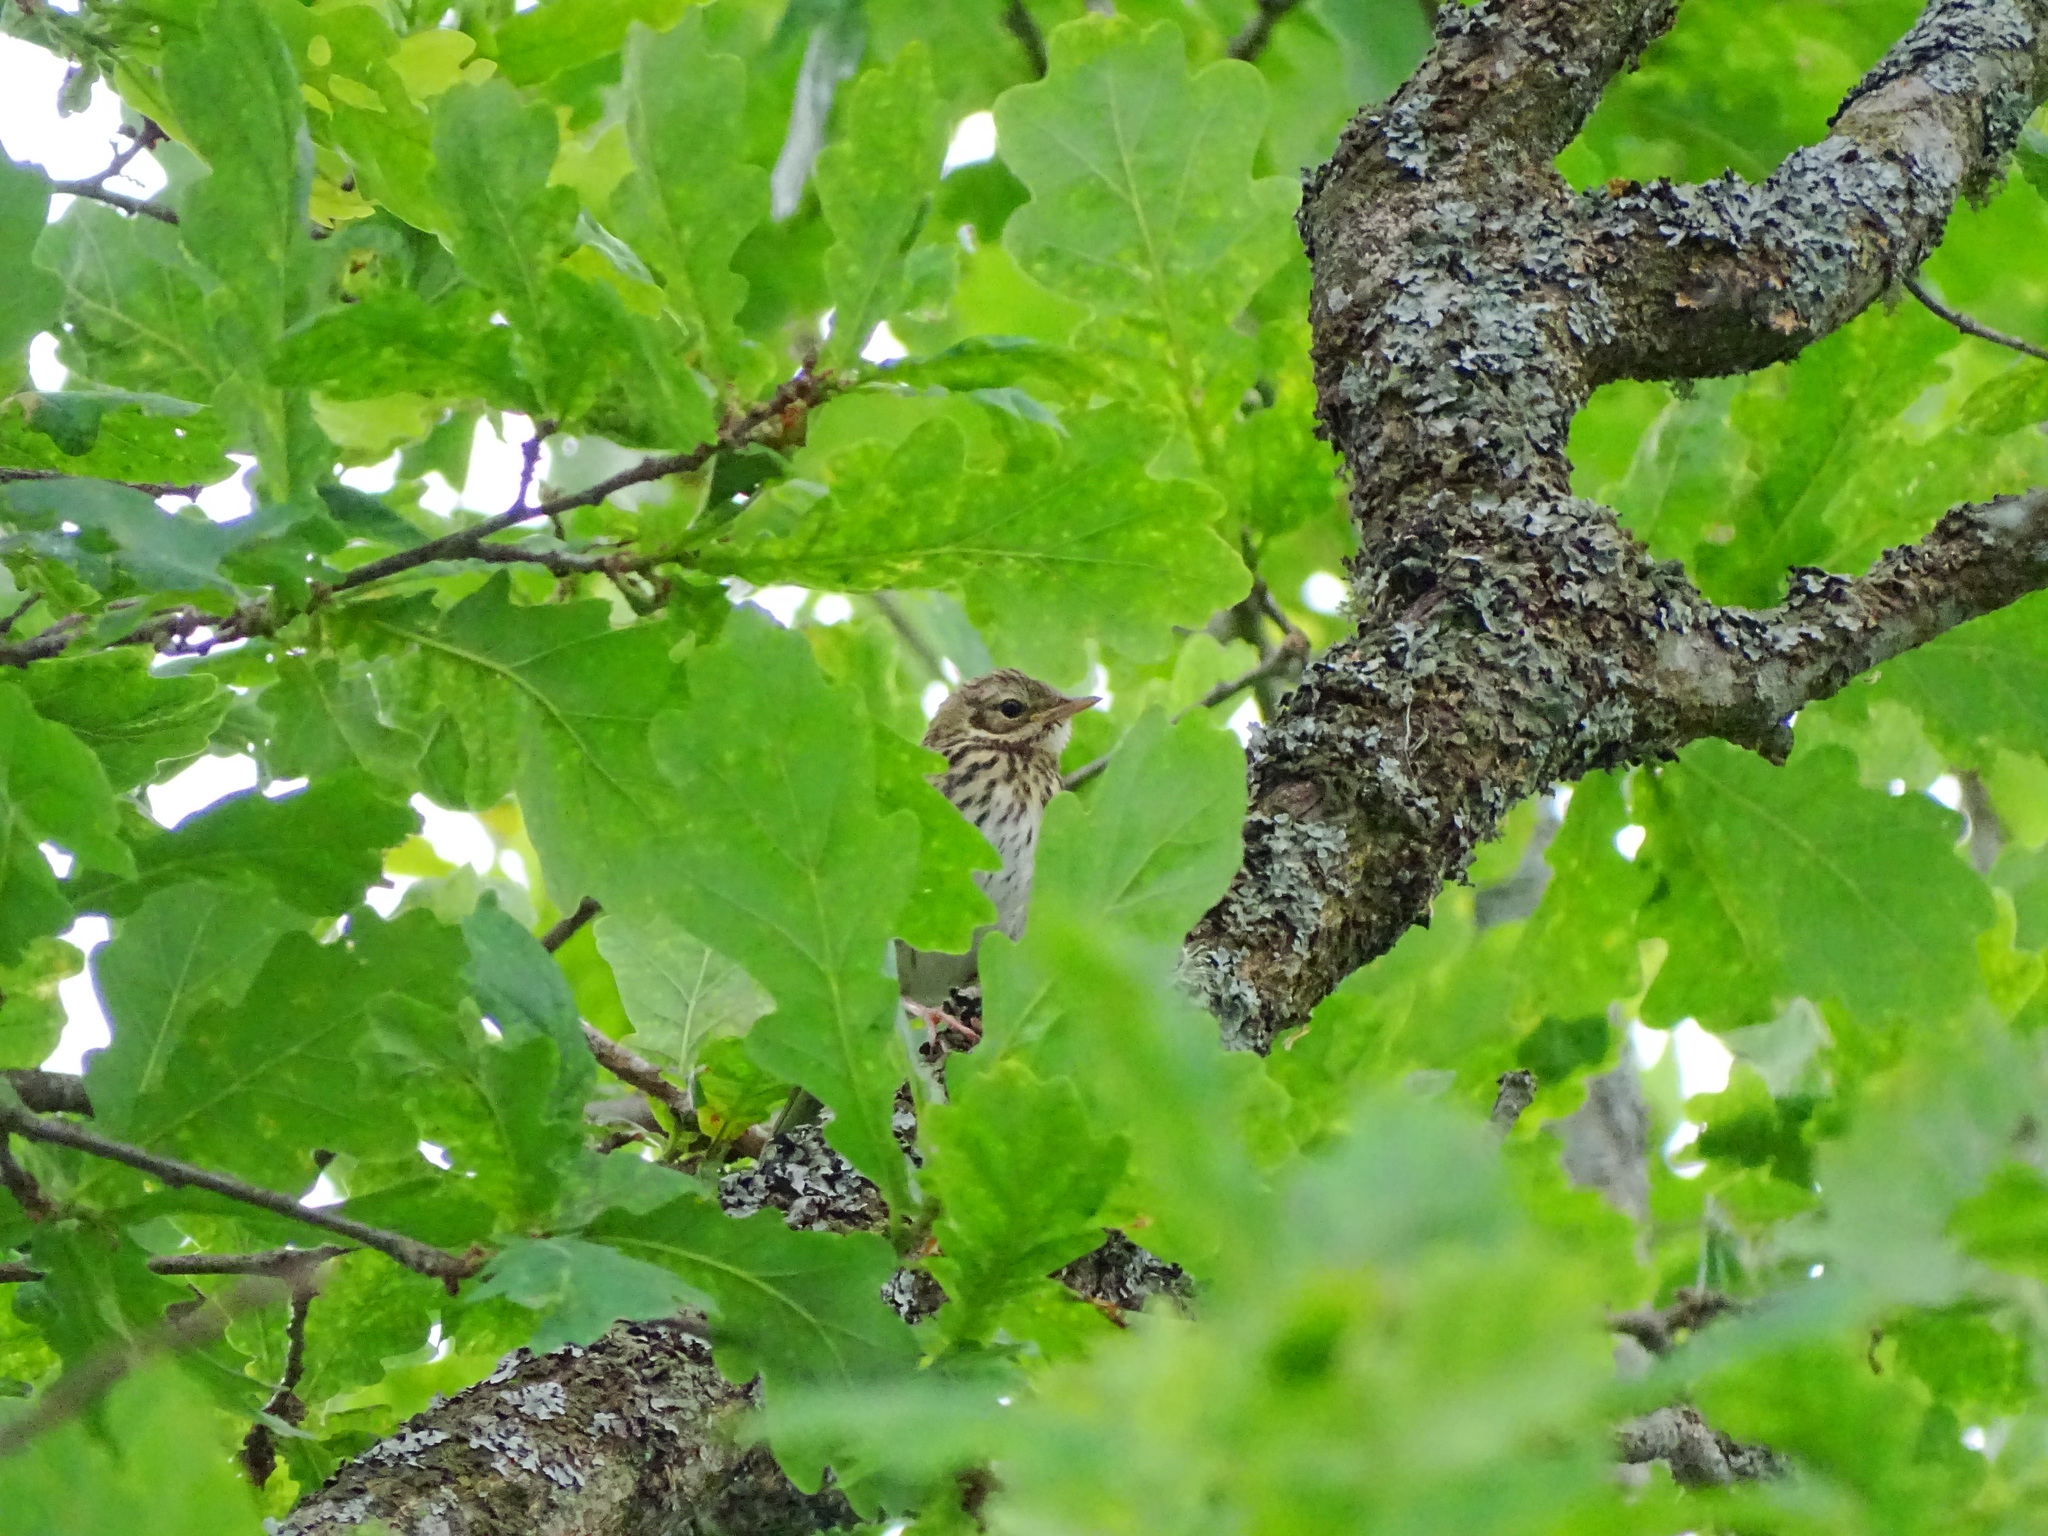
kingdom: Animalia
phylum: Chordata
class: Aves
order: Passeriformes
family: Motacillidae
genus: Anthus
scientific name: Anthus trivialis
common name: Tree pipit
